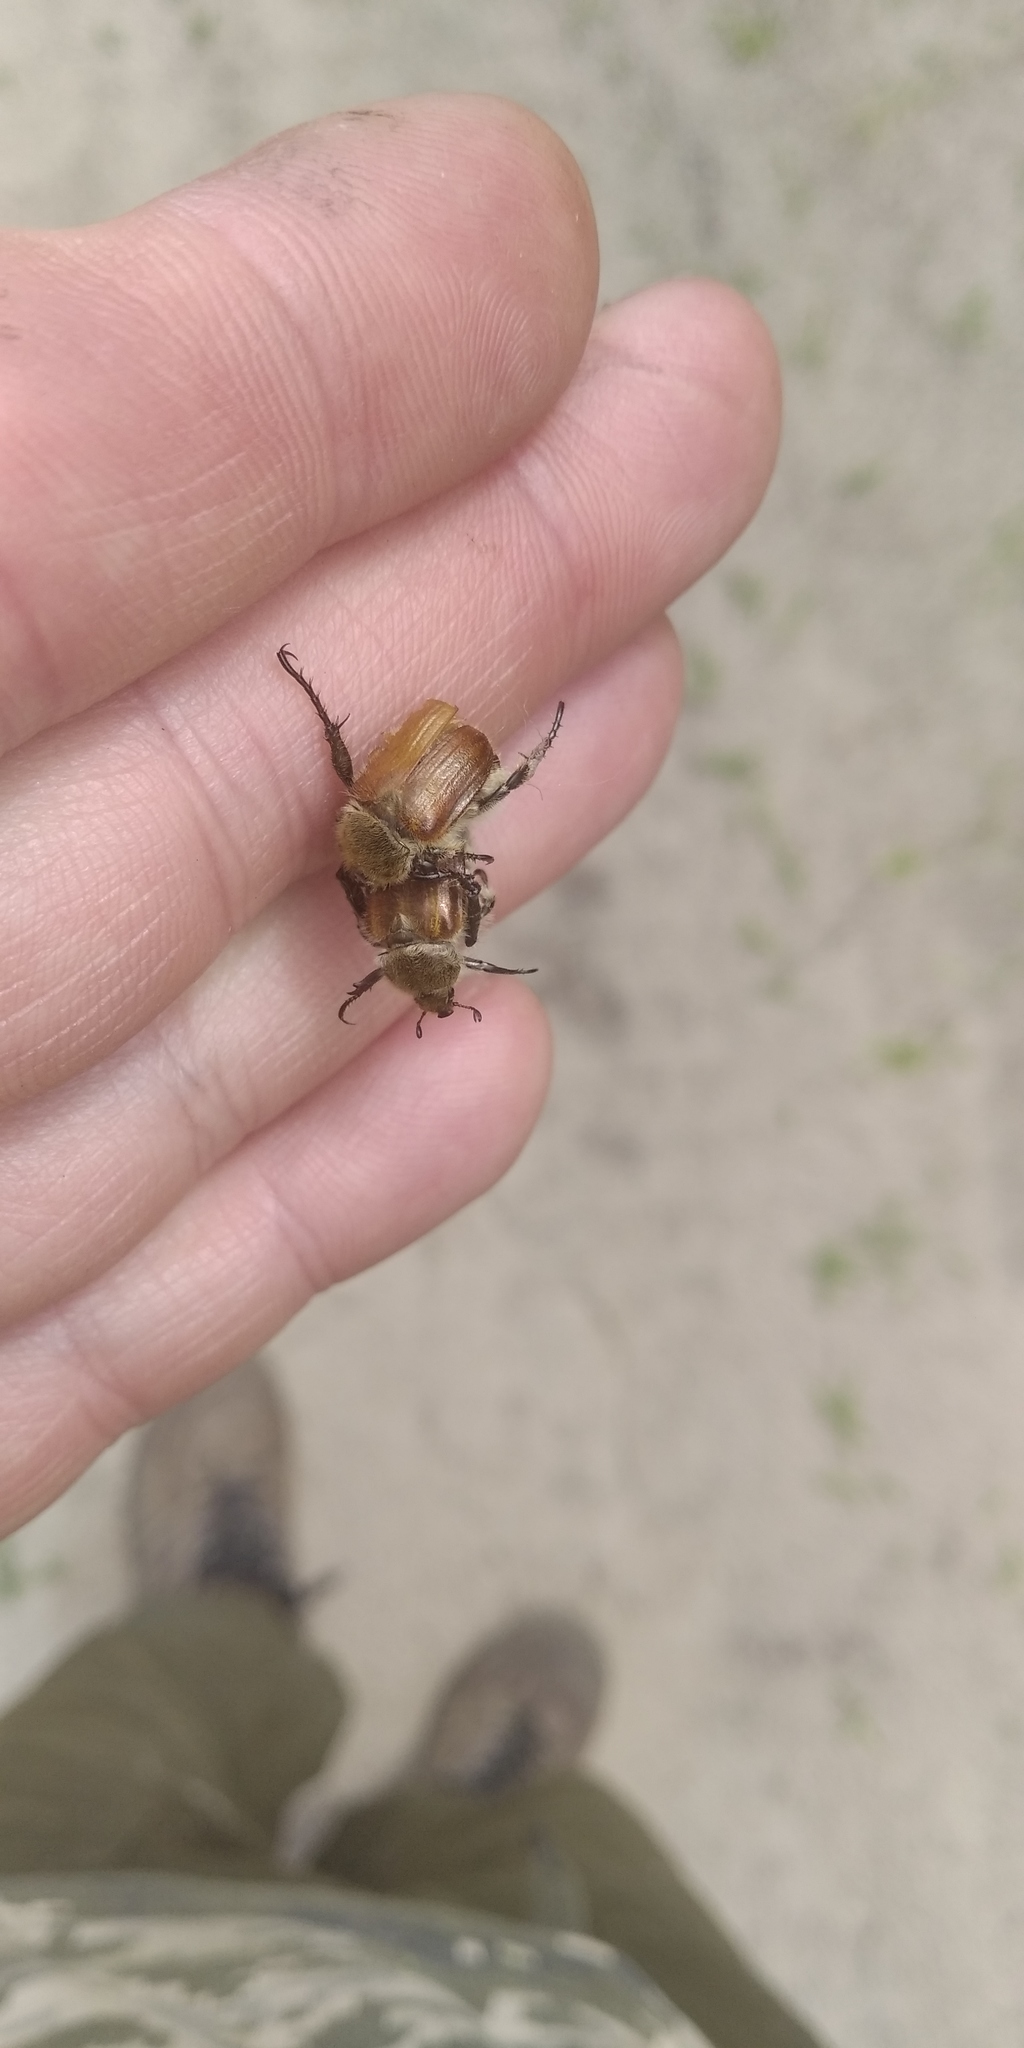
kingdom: Animalia
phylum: Arthropoda
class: Insecta
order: Coleoptera
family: Scarabaeidae
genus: Chaetopteroplia
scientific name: Chaetopteroplia segetum
